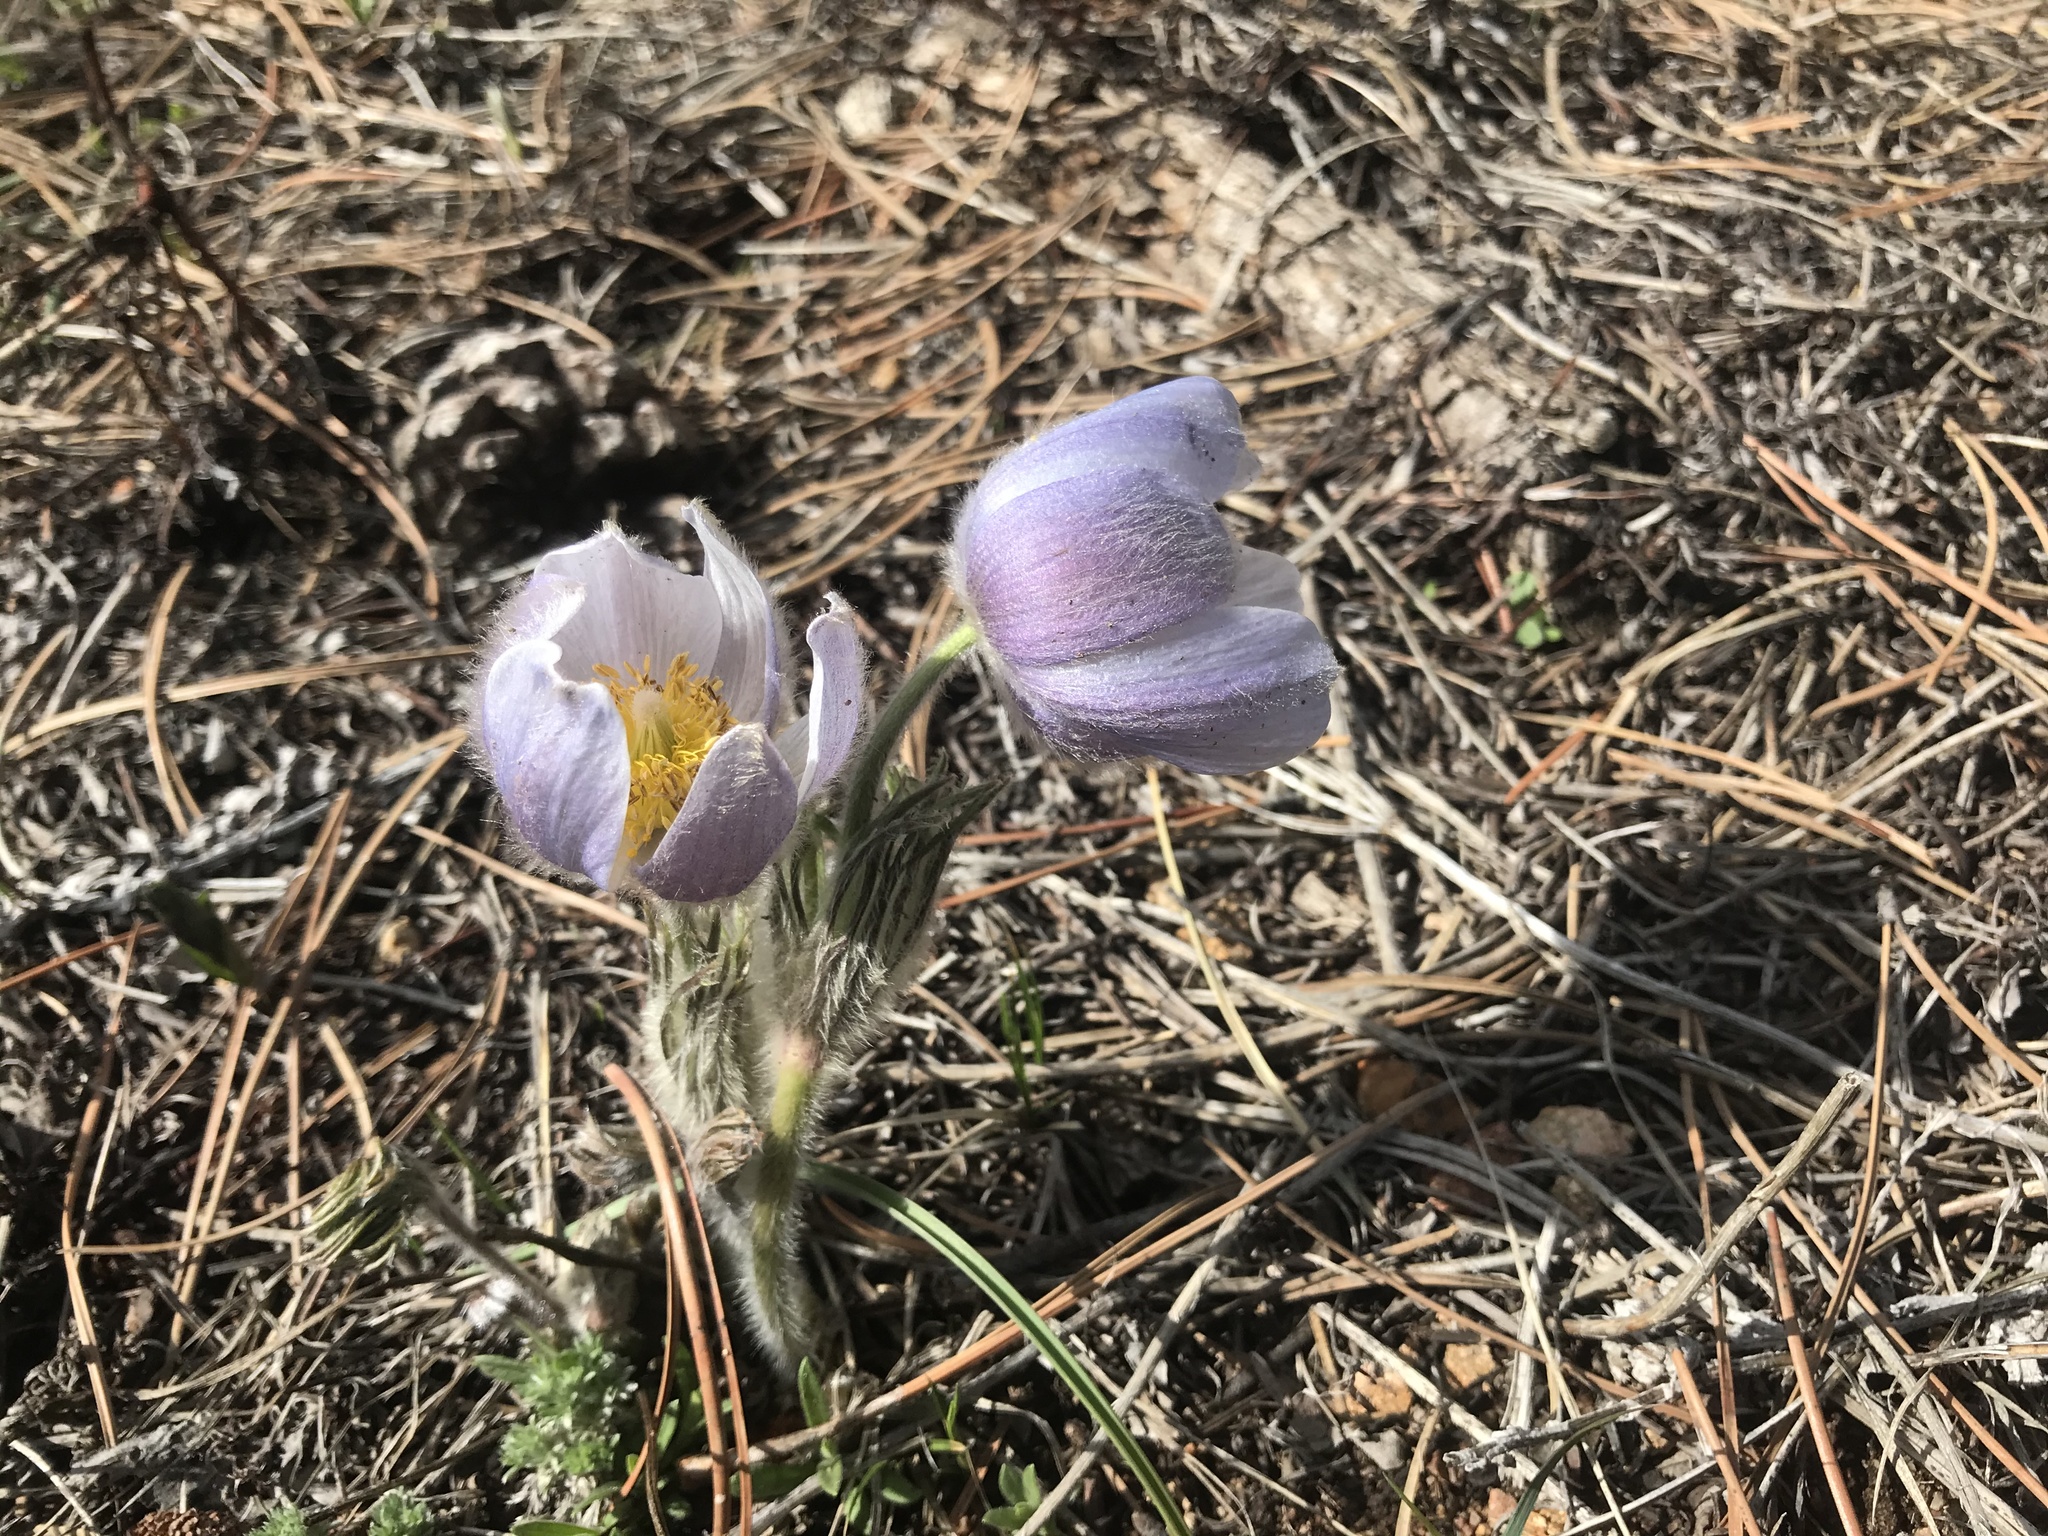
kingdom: Plantae
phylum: Tracheophyta
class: Magnoliopsida
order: Ranunculales
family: Ranunculaceae
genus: Pulsatilla
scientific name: Pulsatilla nuttalliana
